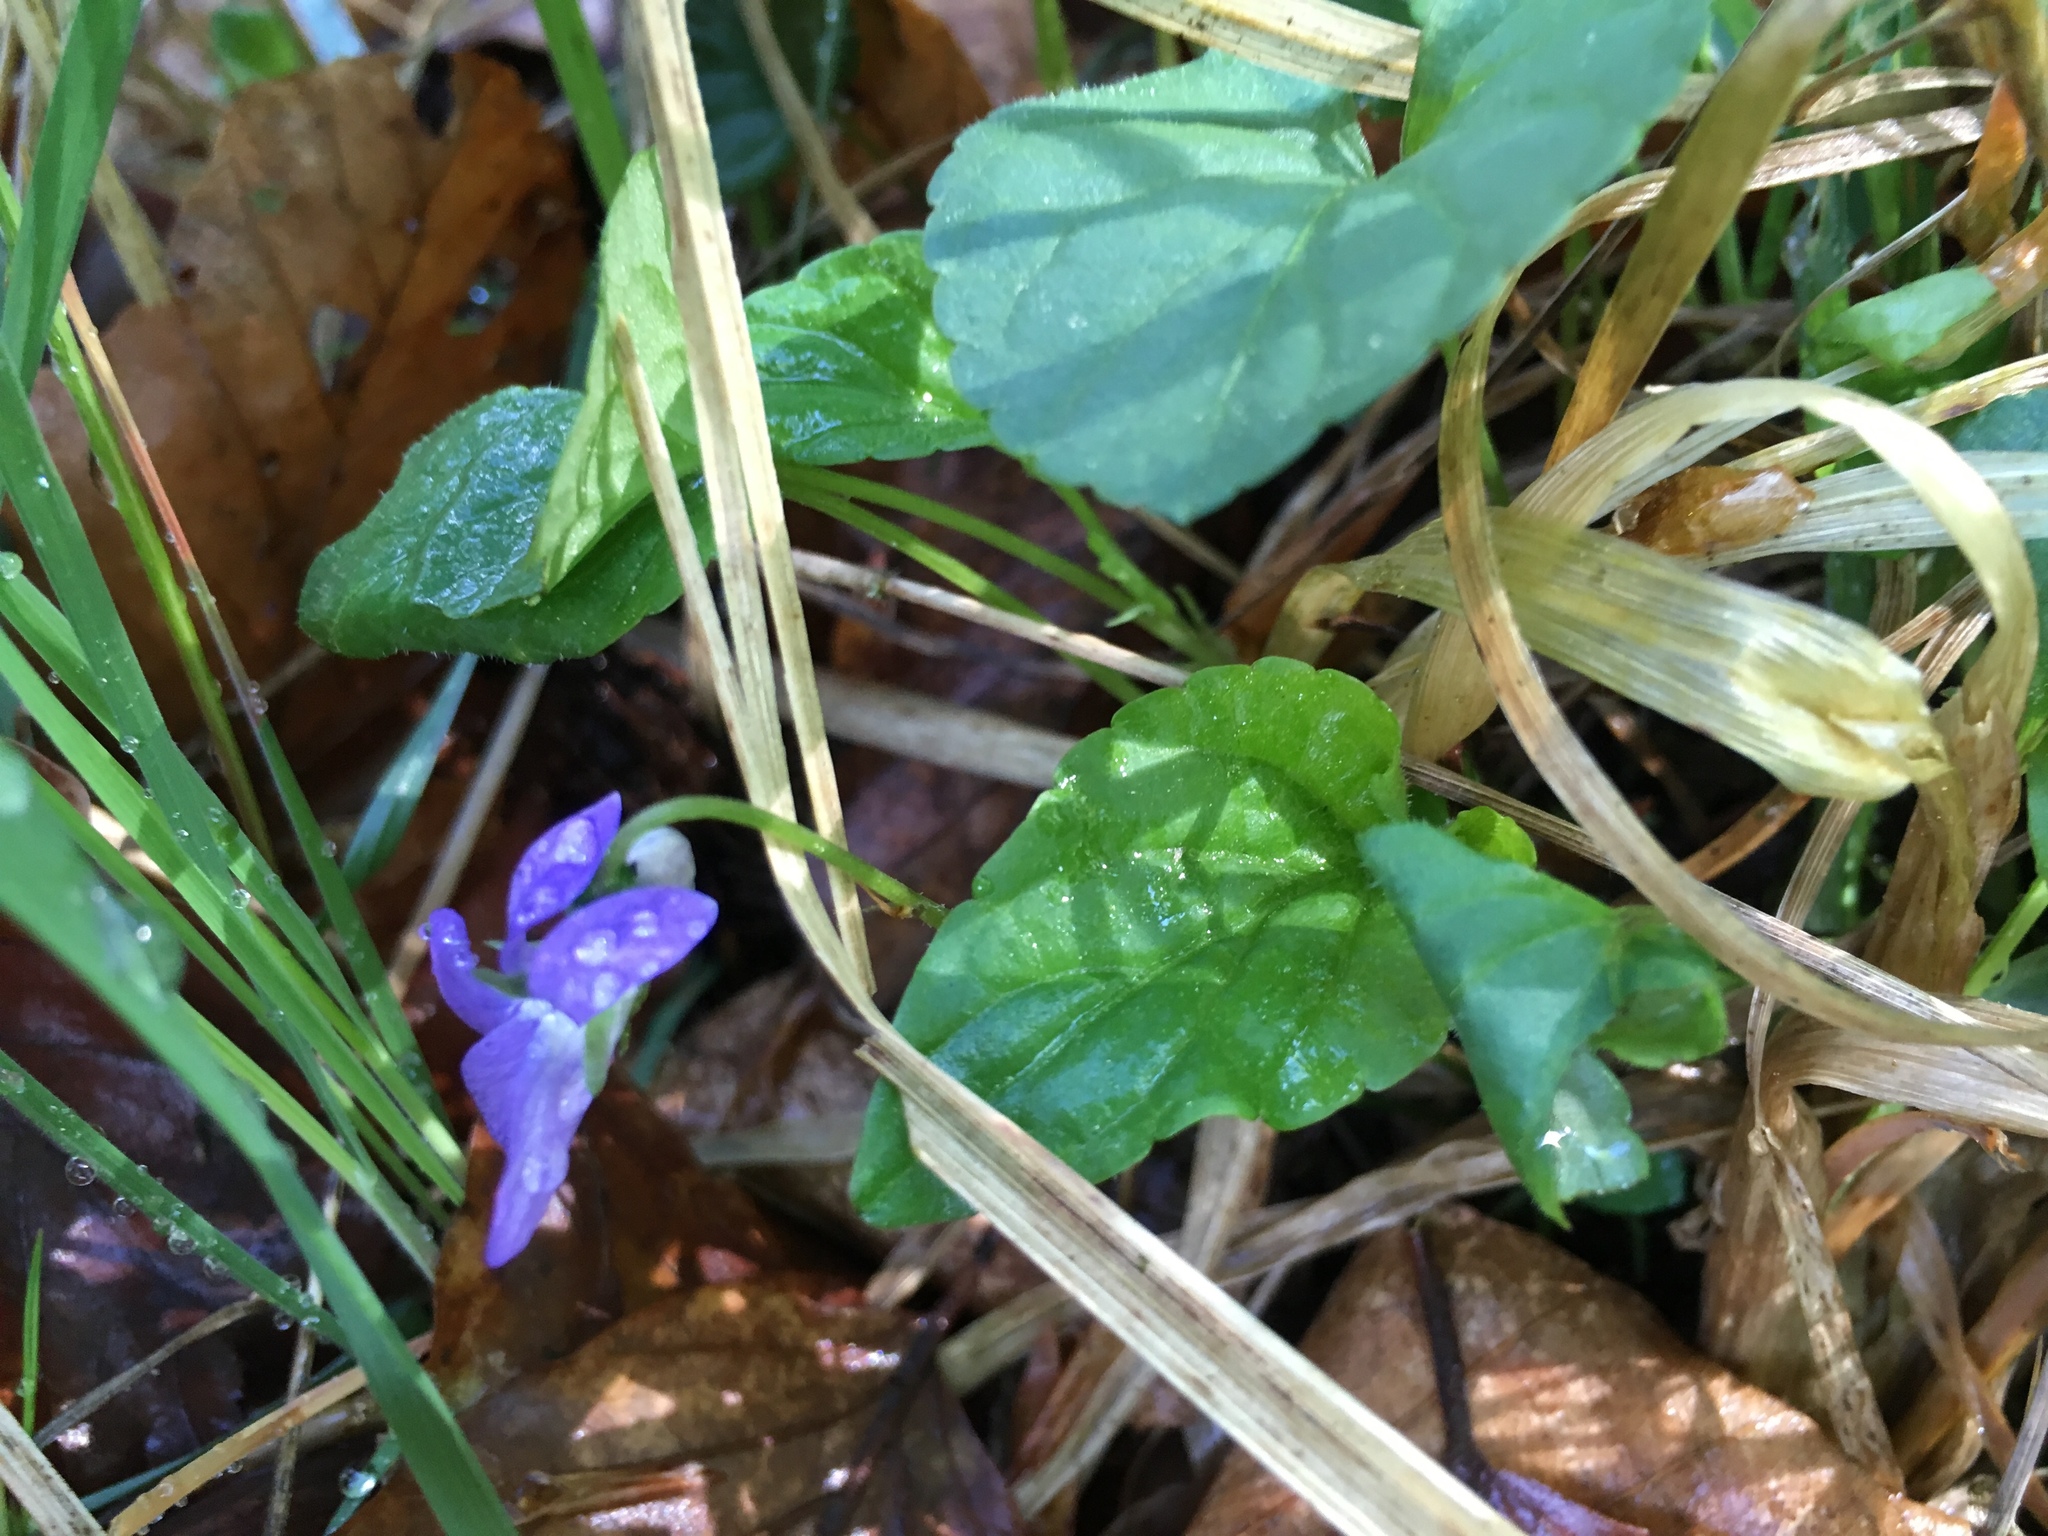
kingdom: Plantae
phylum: Tracheophyta
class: Magnoliopsida
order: Malpighiales
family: Violaceae
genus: Viola
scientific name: Viola riviniana
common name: Common dog-violet
